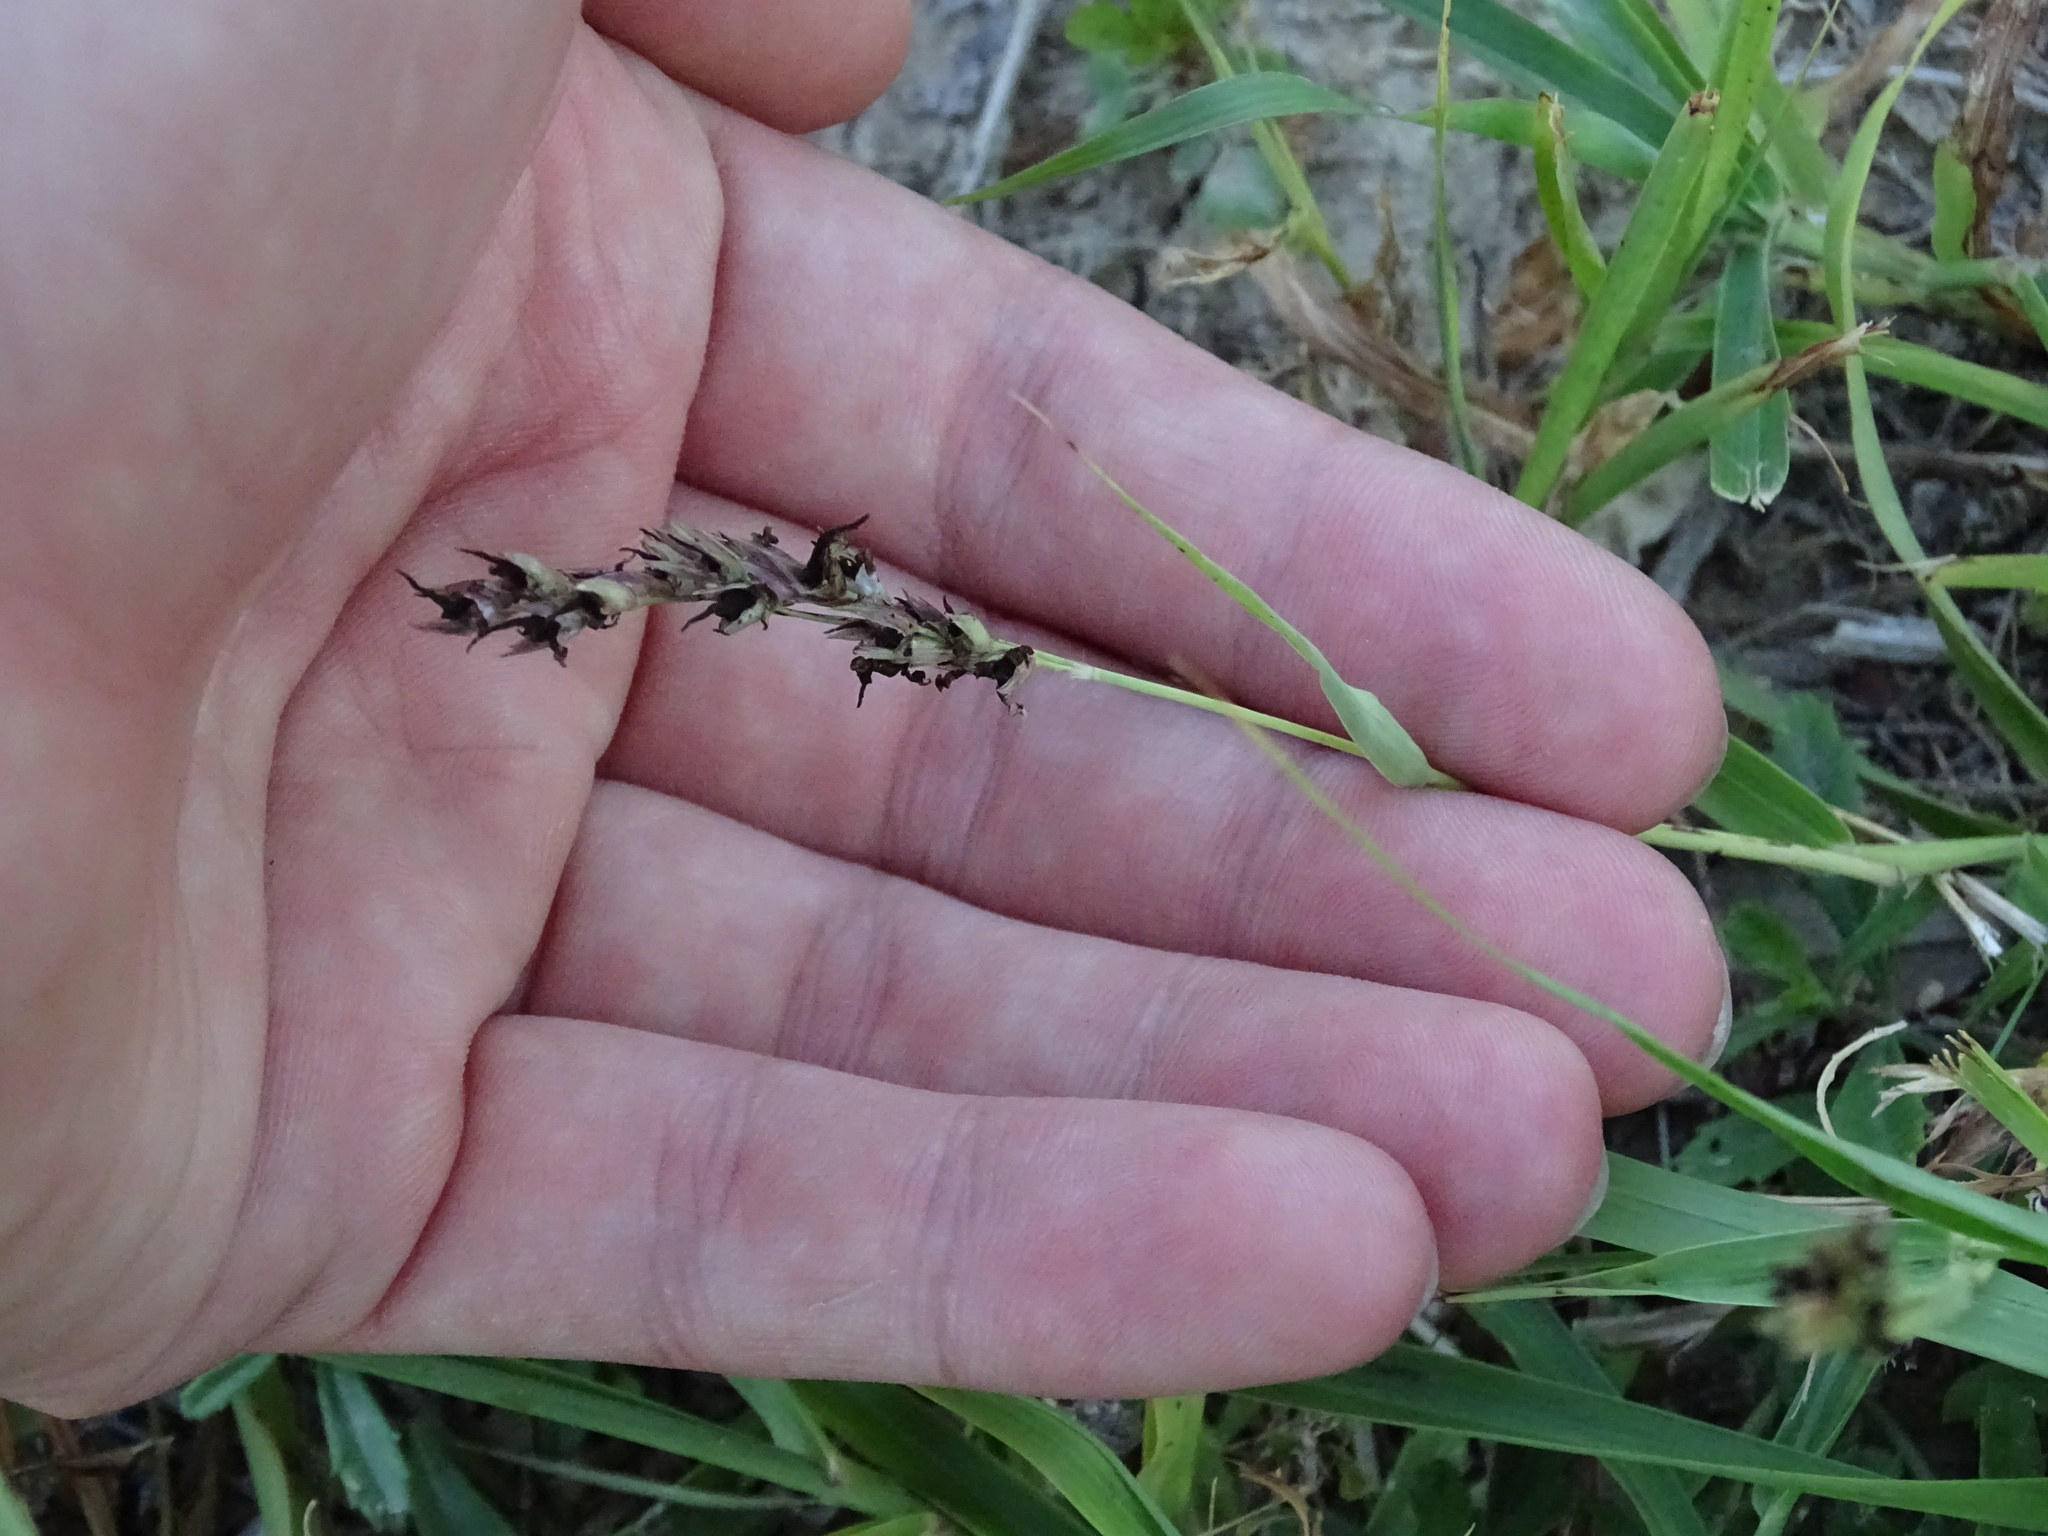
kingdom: Plantae
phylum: Tracheophyta
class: Liliopsida
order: Poales
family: Poaceae
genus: Sorghum
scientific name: Sorghum halepense
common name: Johnson-grass
